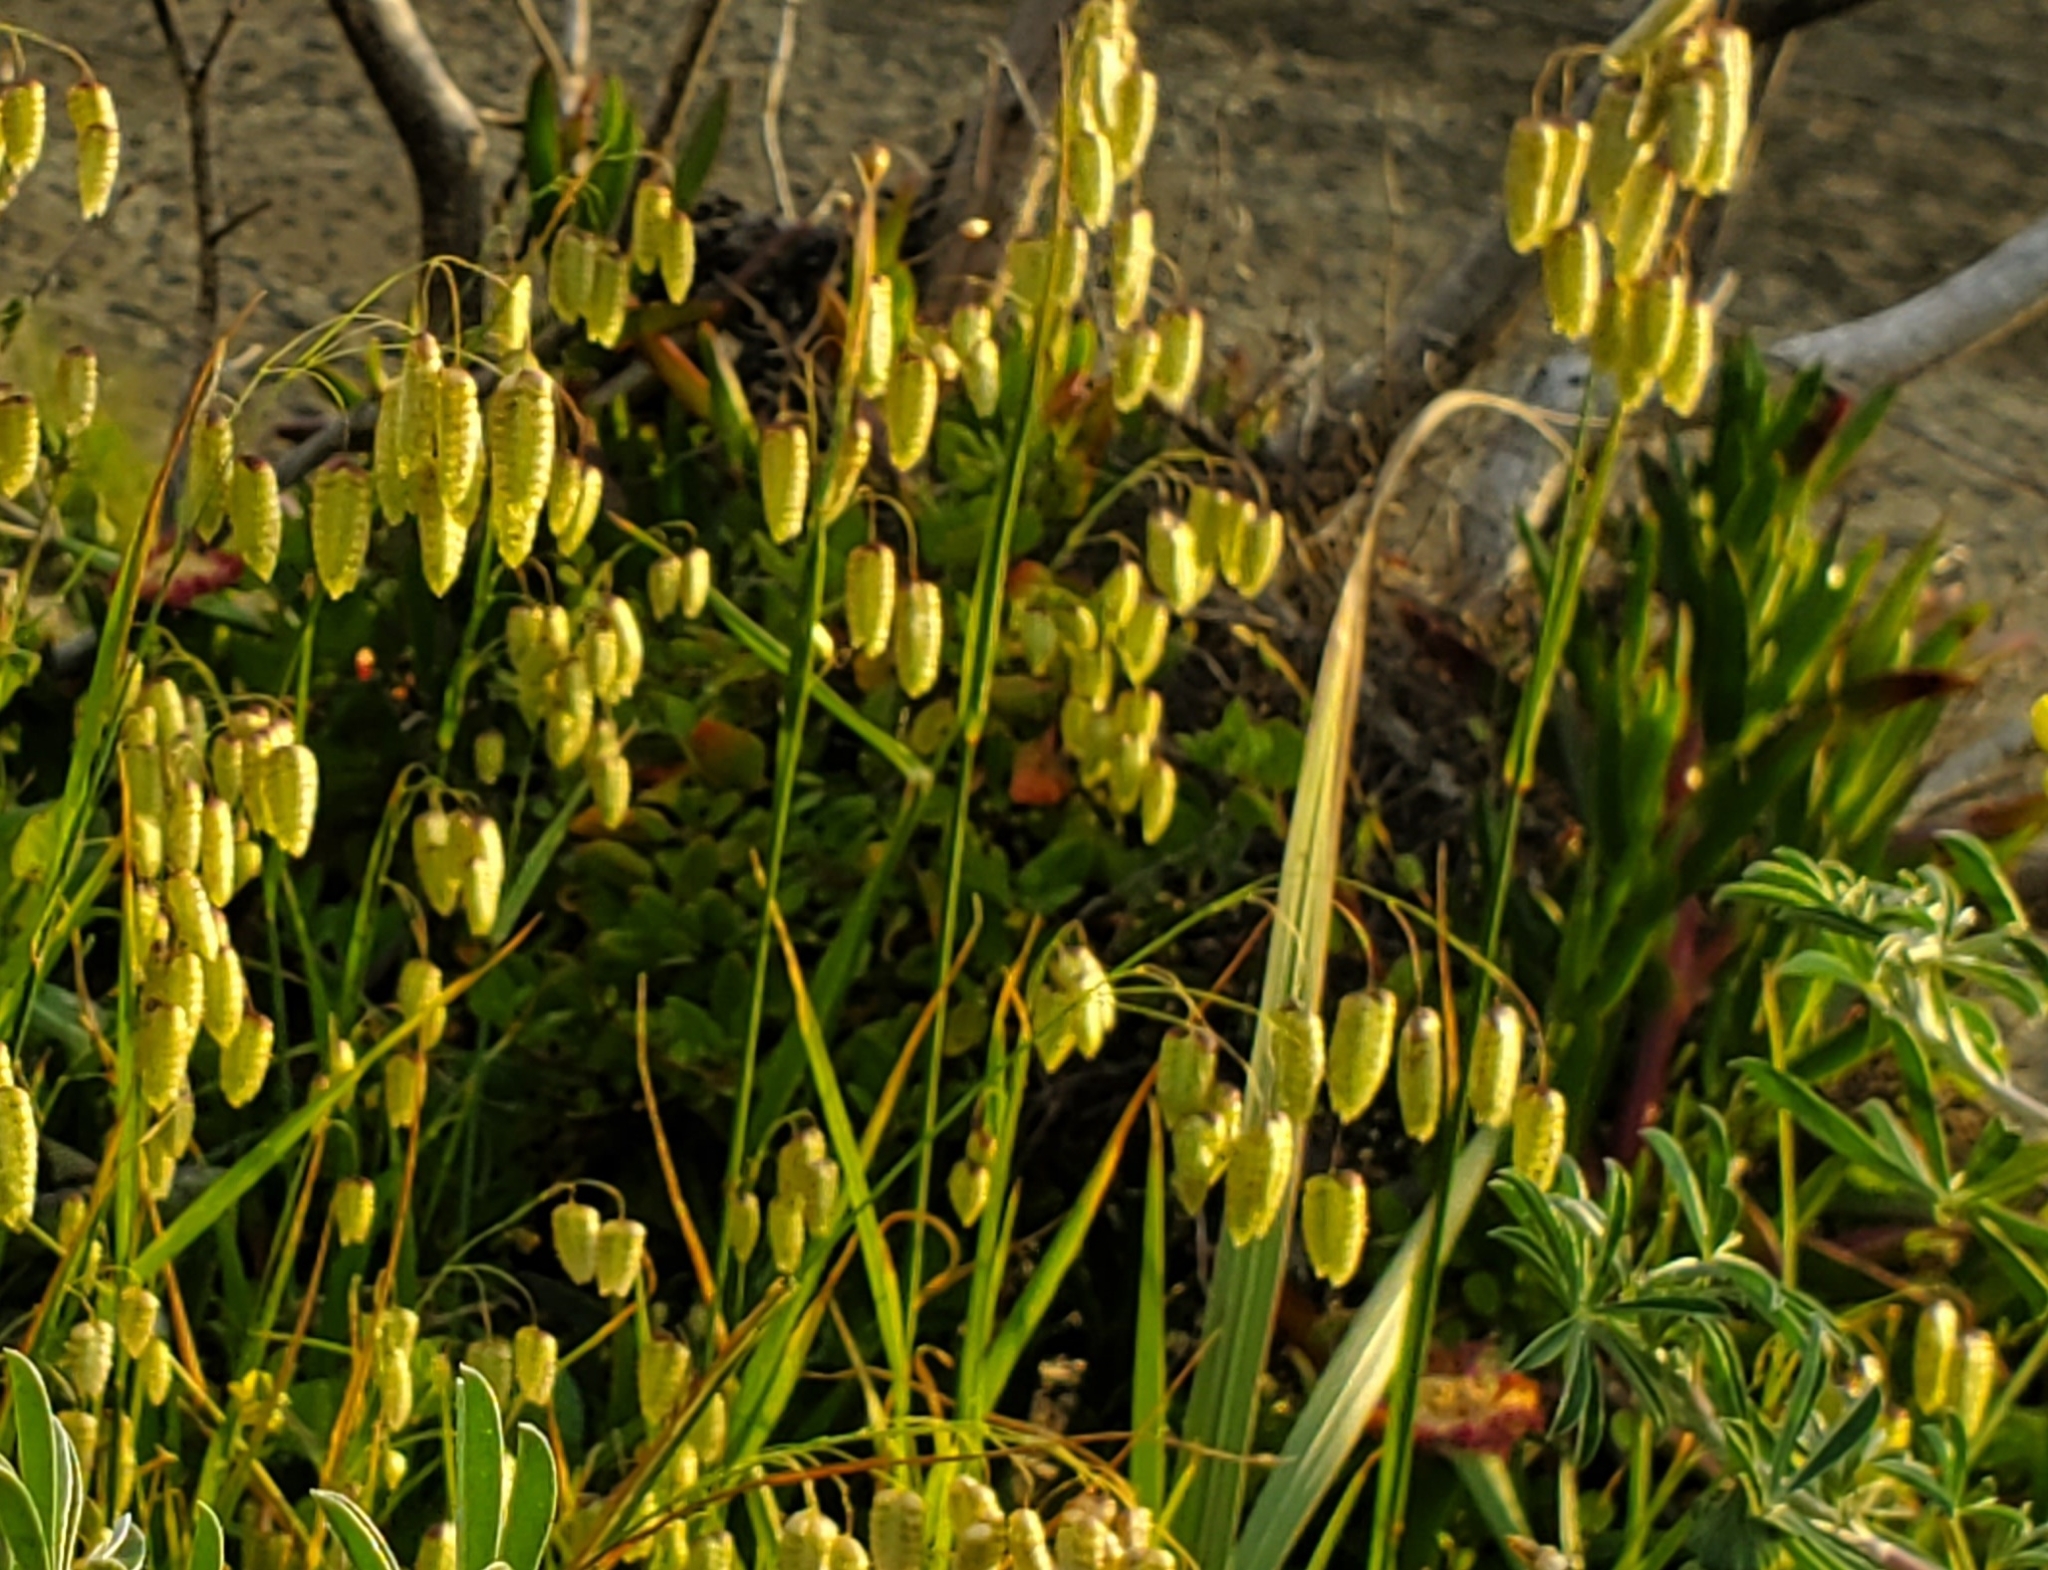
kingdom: Plantae
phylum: Tracheophyta
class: Liliopsida
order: Poales
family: Poaceae
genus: Briza
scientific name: Briza maxima
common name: Big quakinggrass
